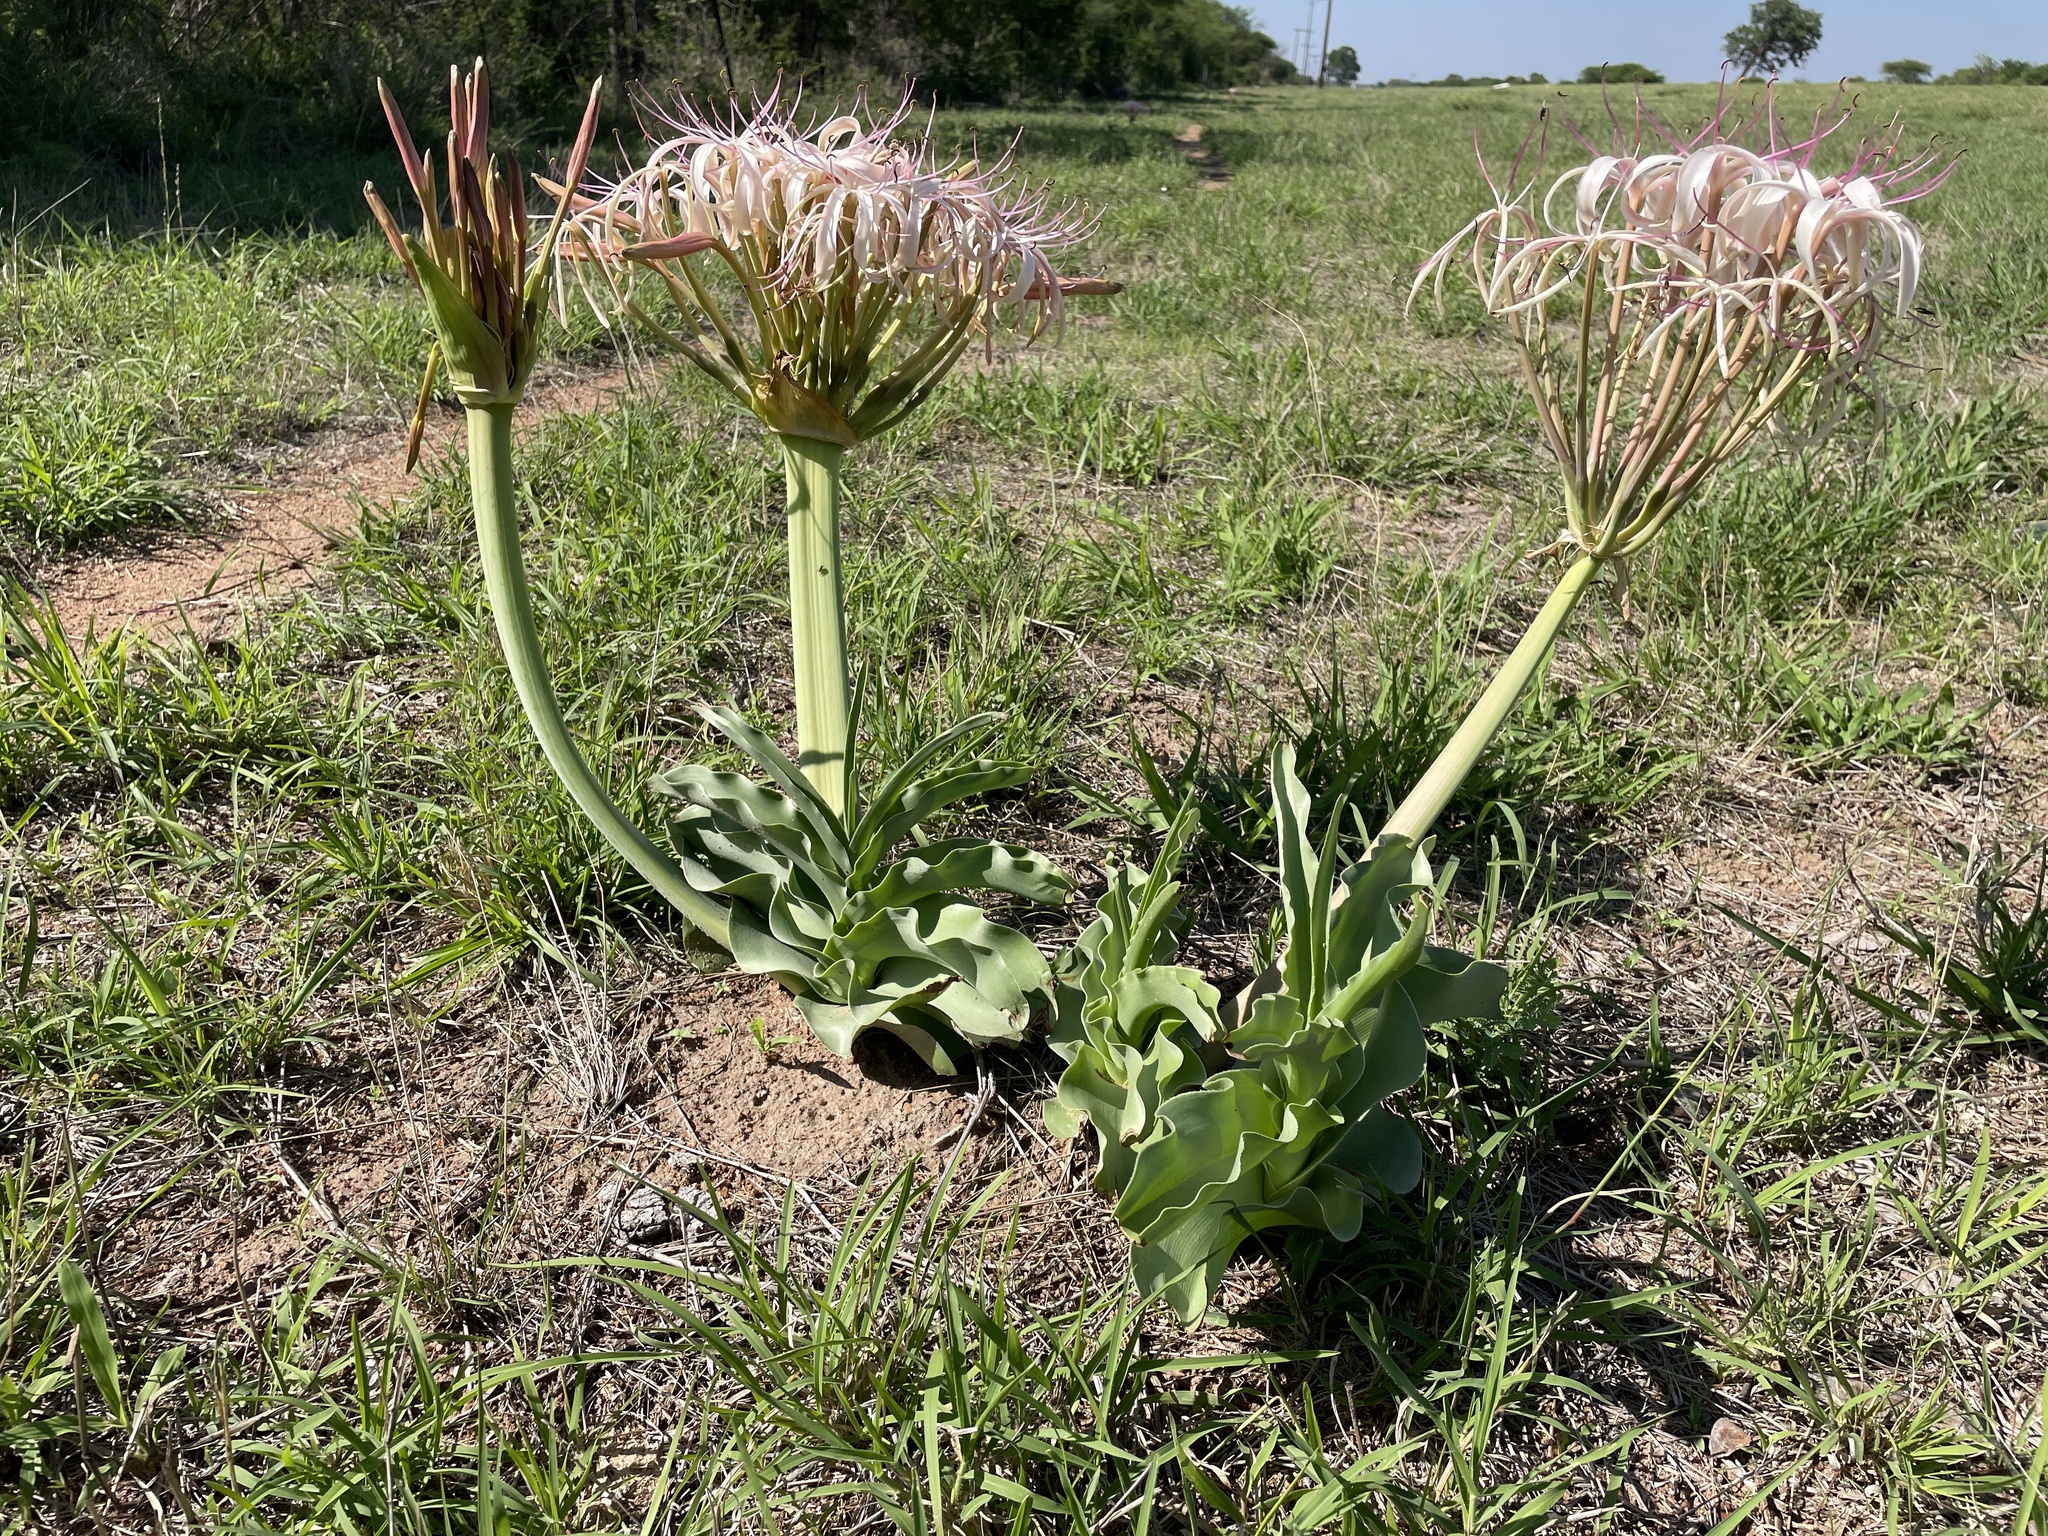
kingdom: Plantae
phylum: Tracheophyta
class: Liliopsida
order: Asparagales
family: Amaryllidaceae
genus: Crinum
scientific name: Crinum buphanoides
